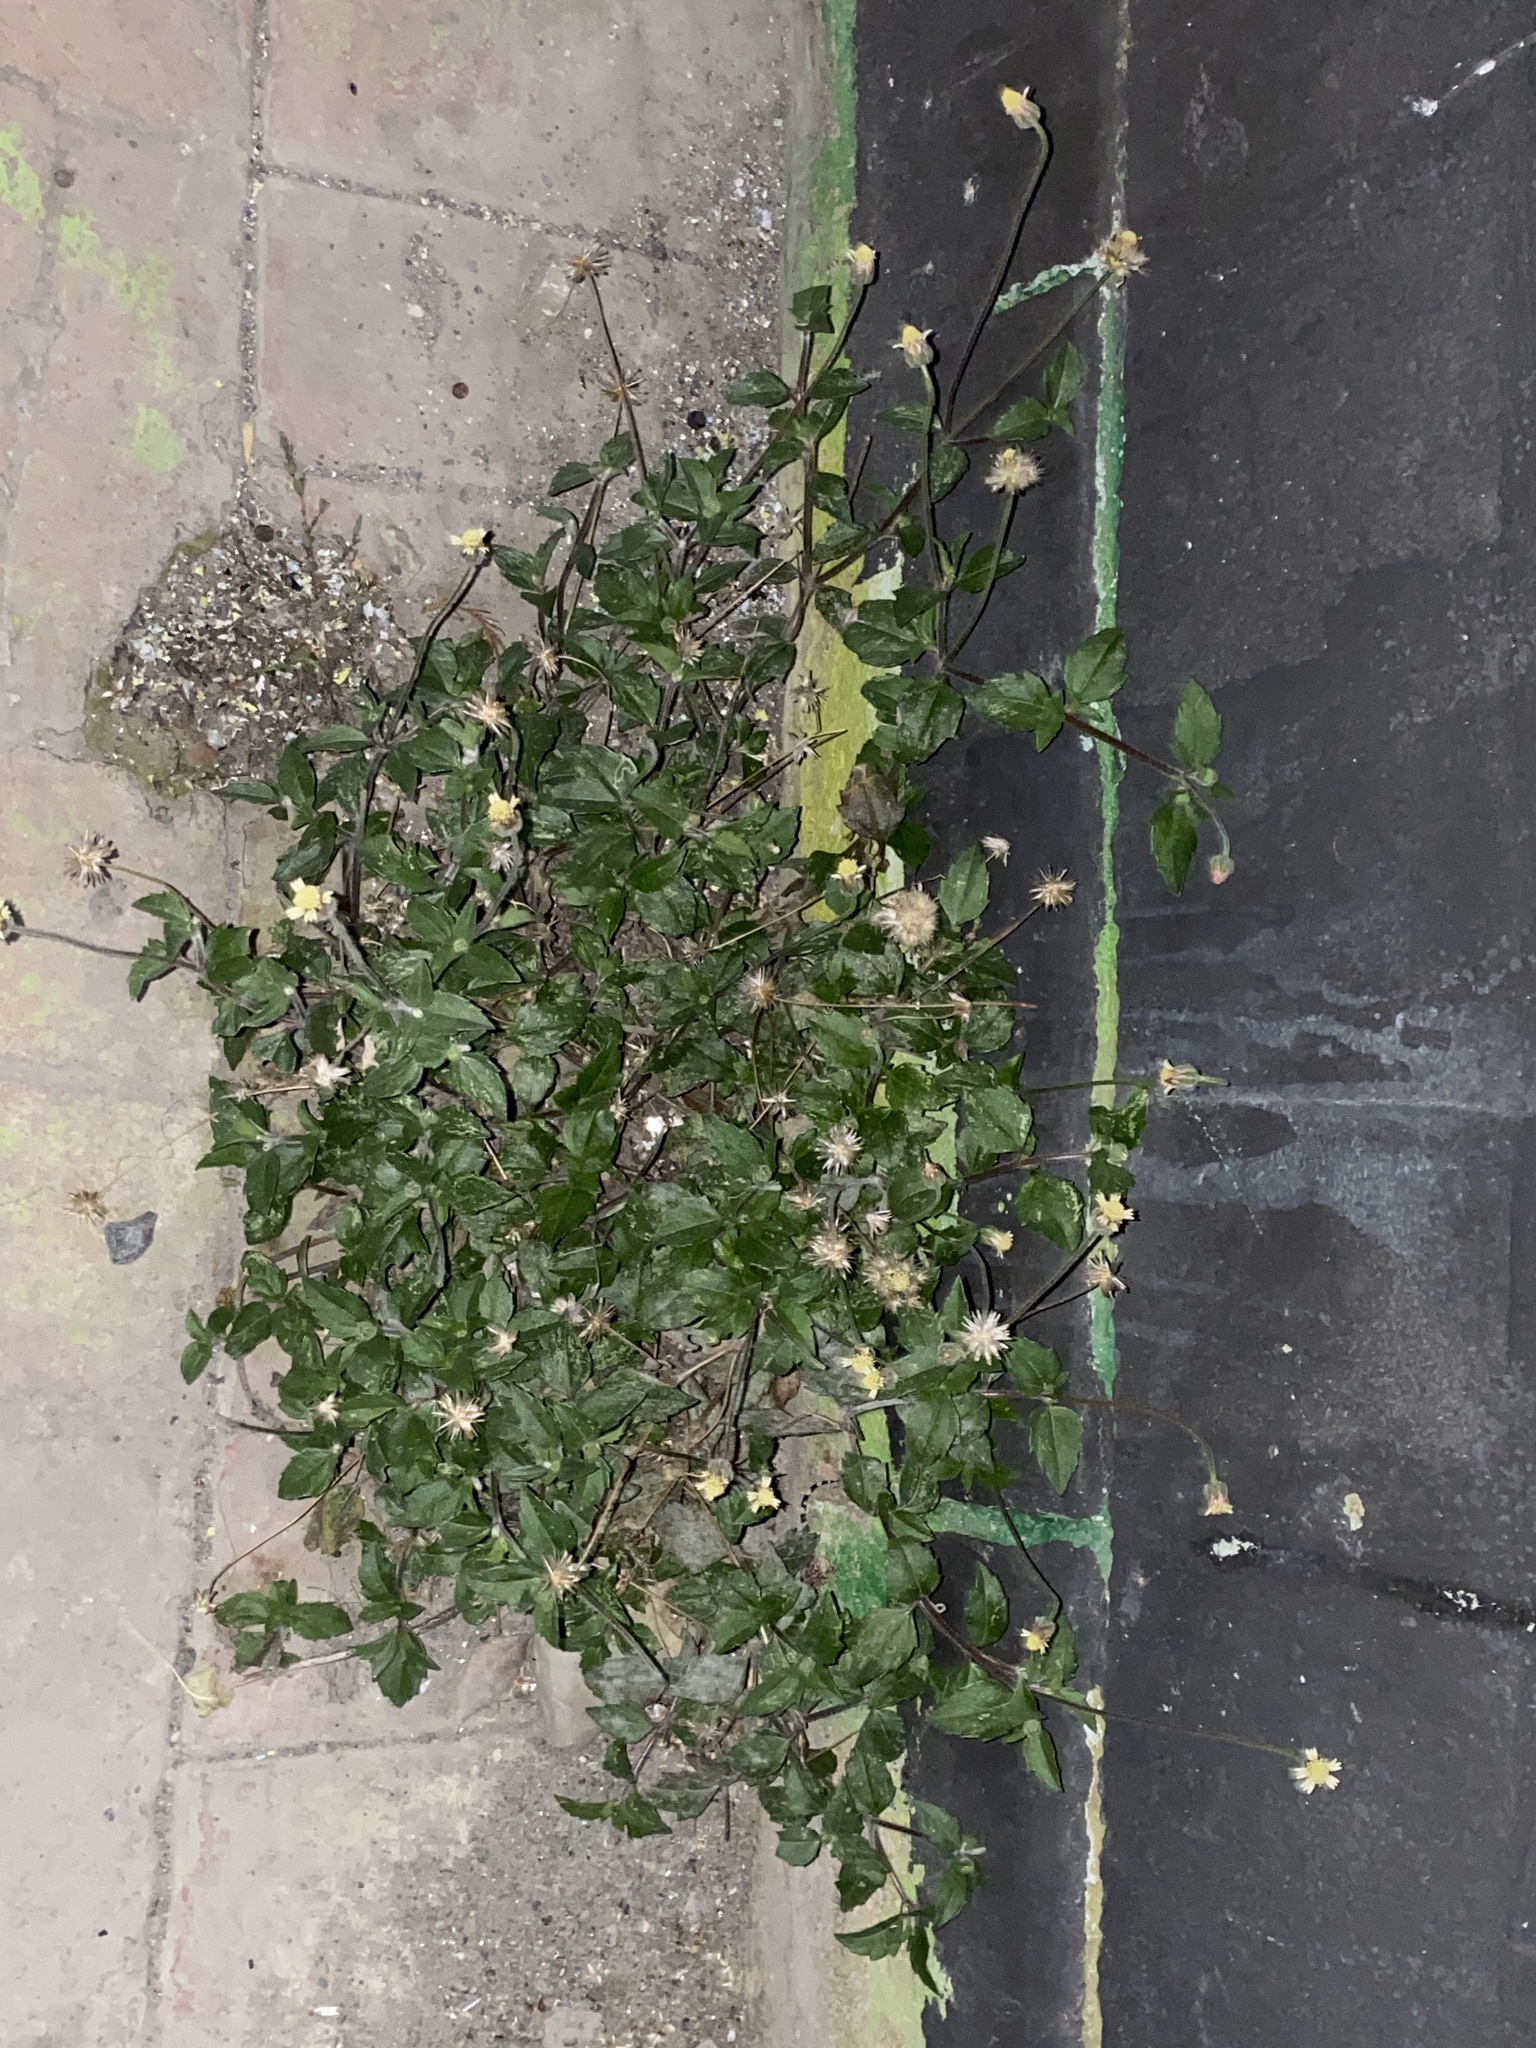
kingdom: Plantae
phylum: Tracheophyta
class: Magnoliopsida
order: Asterales
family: Asteraceae
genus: Tridax
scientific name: Tridax procumbens
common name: Coatbuttons
